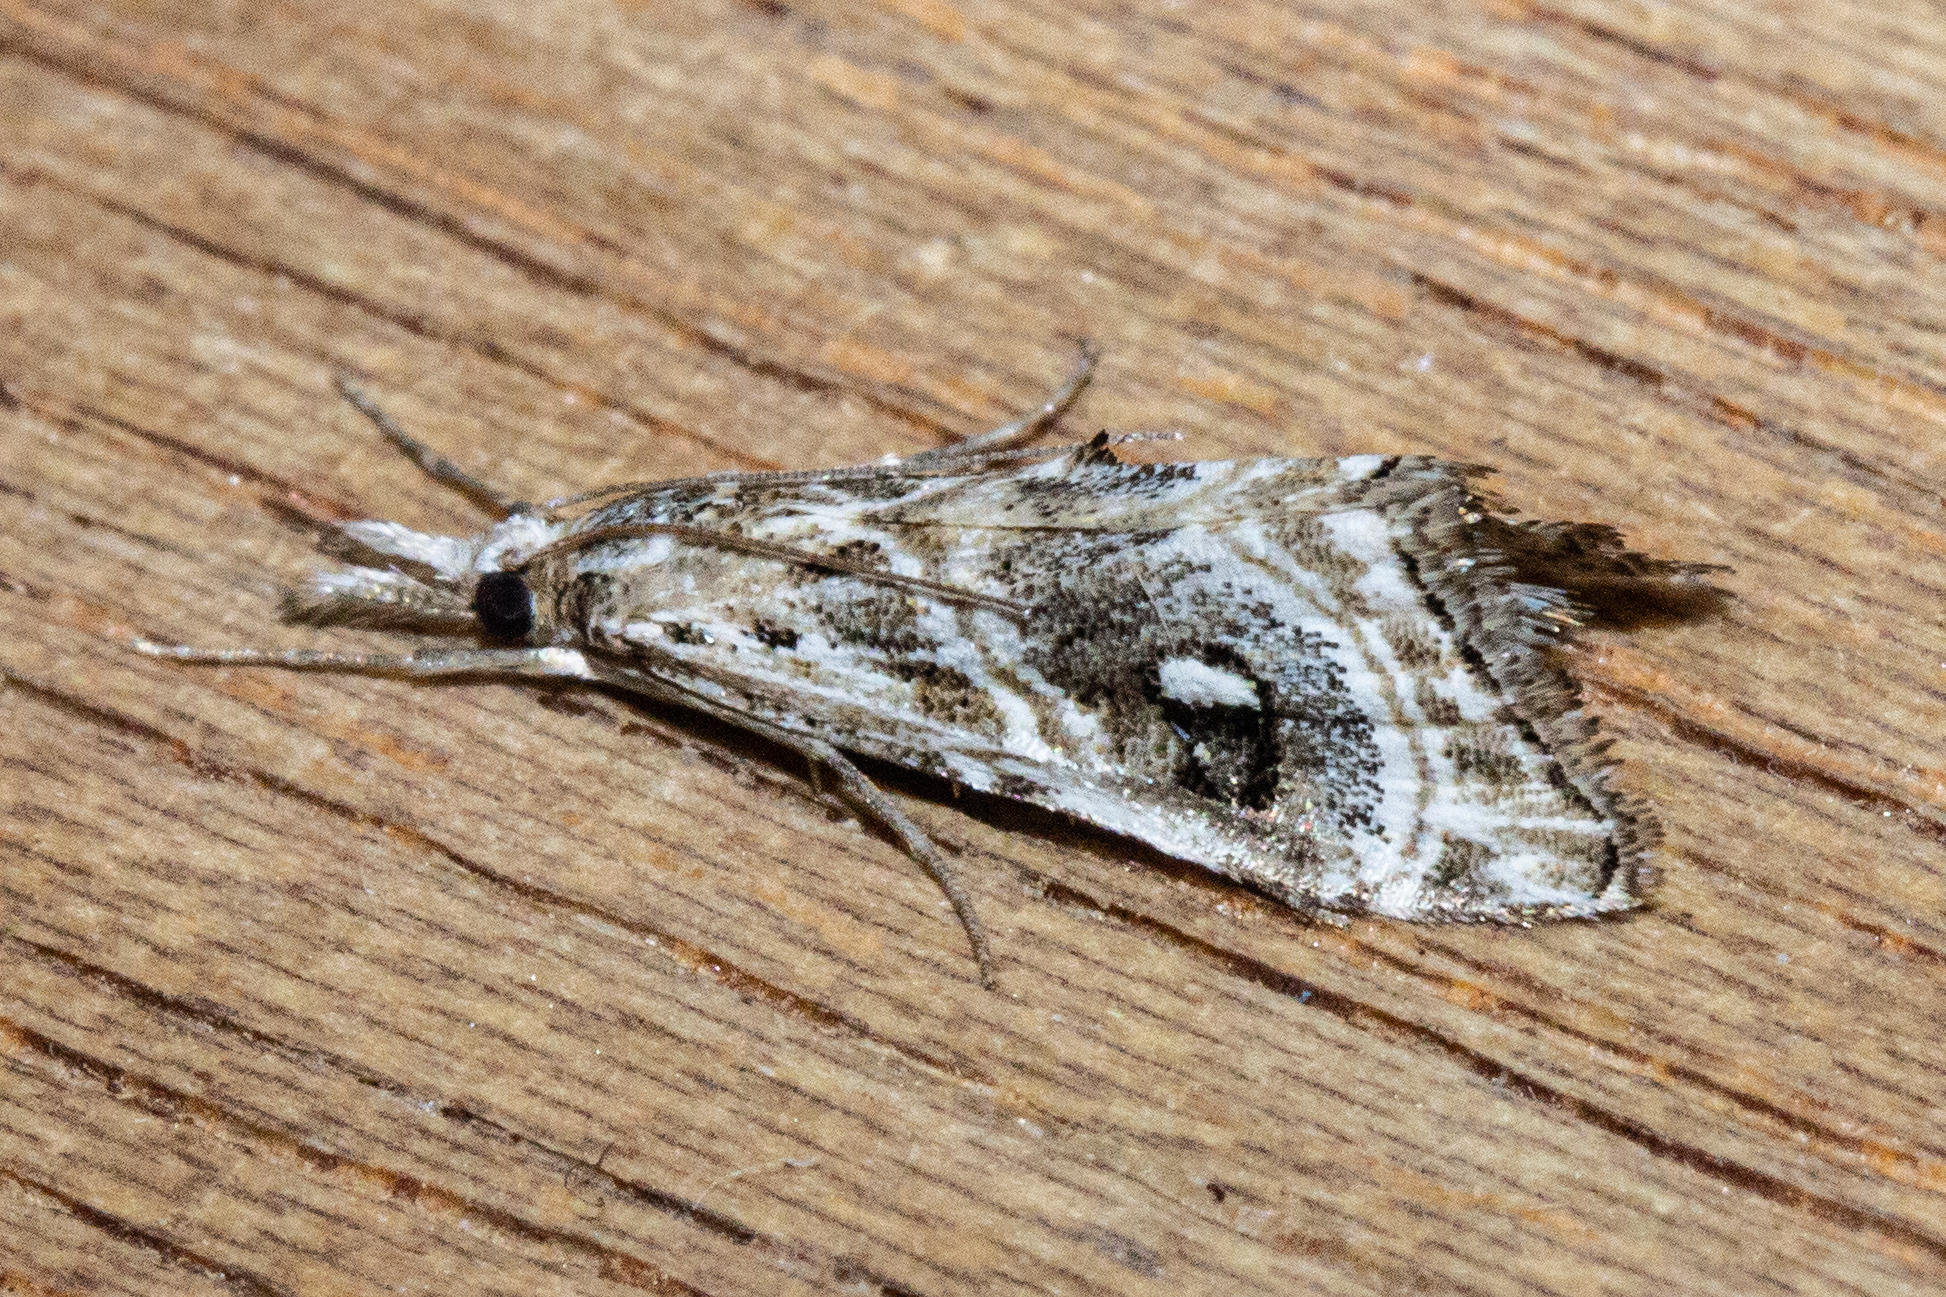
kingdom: Animalia
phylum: Arthropoda
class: Insecta
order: Lepidoptera
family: Crambidae
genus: Gadira
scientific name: Gadira acerella
